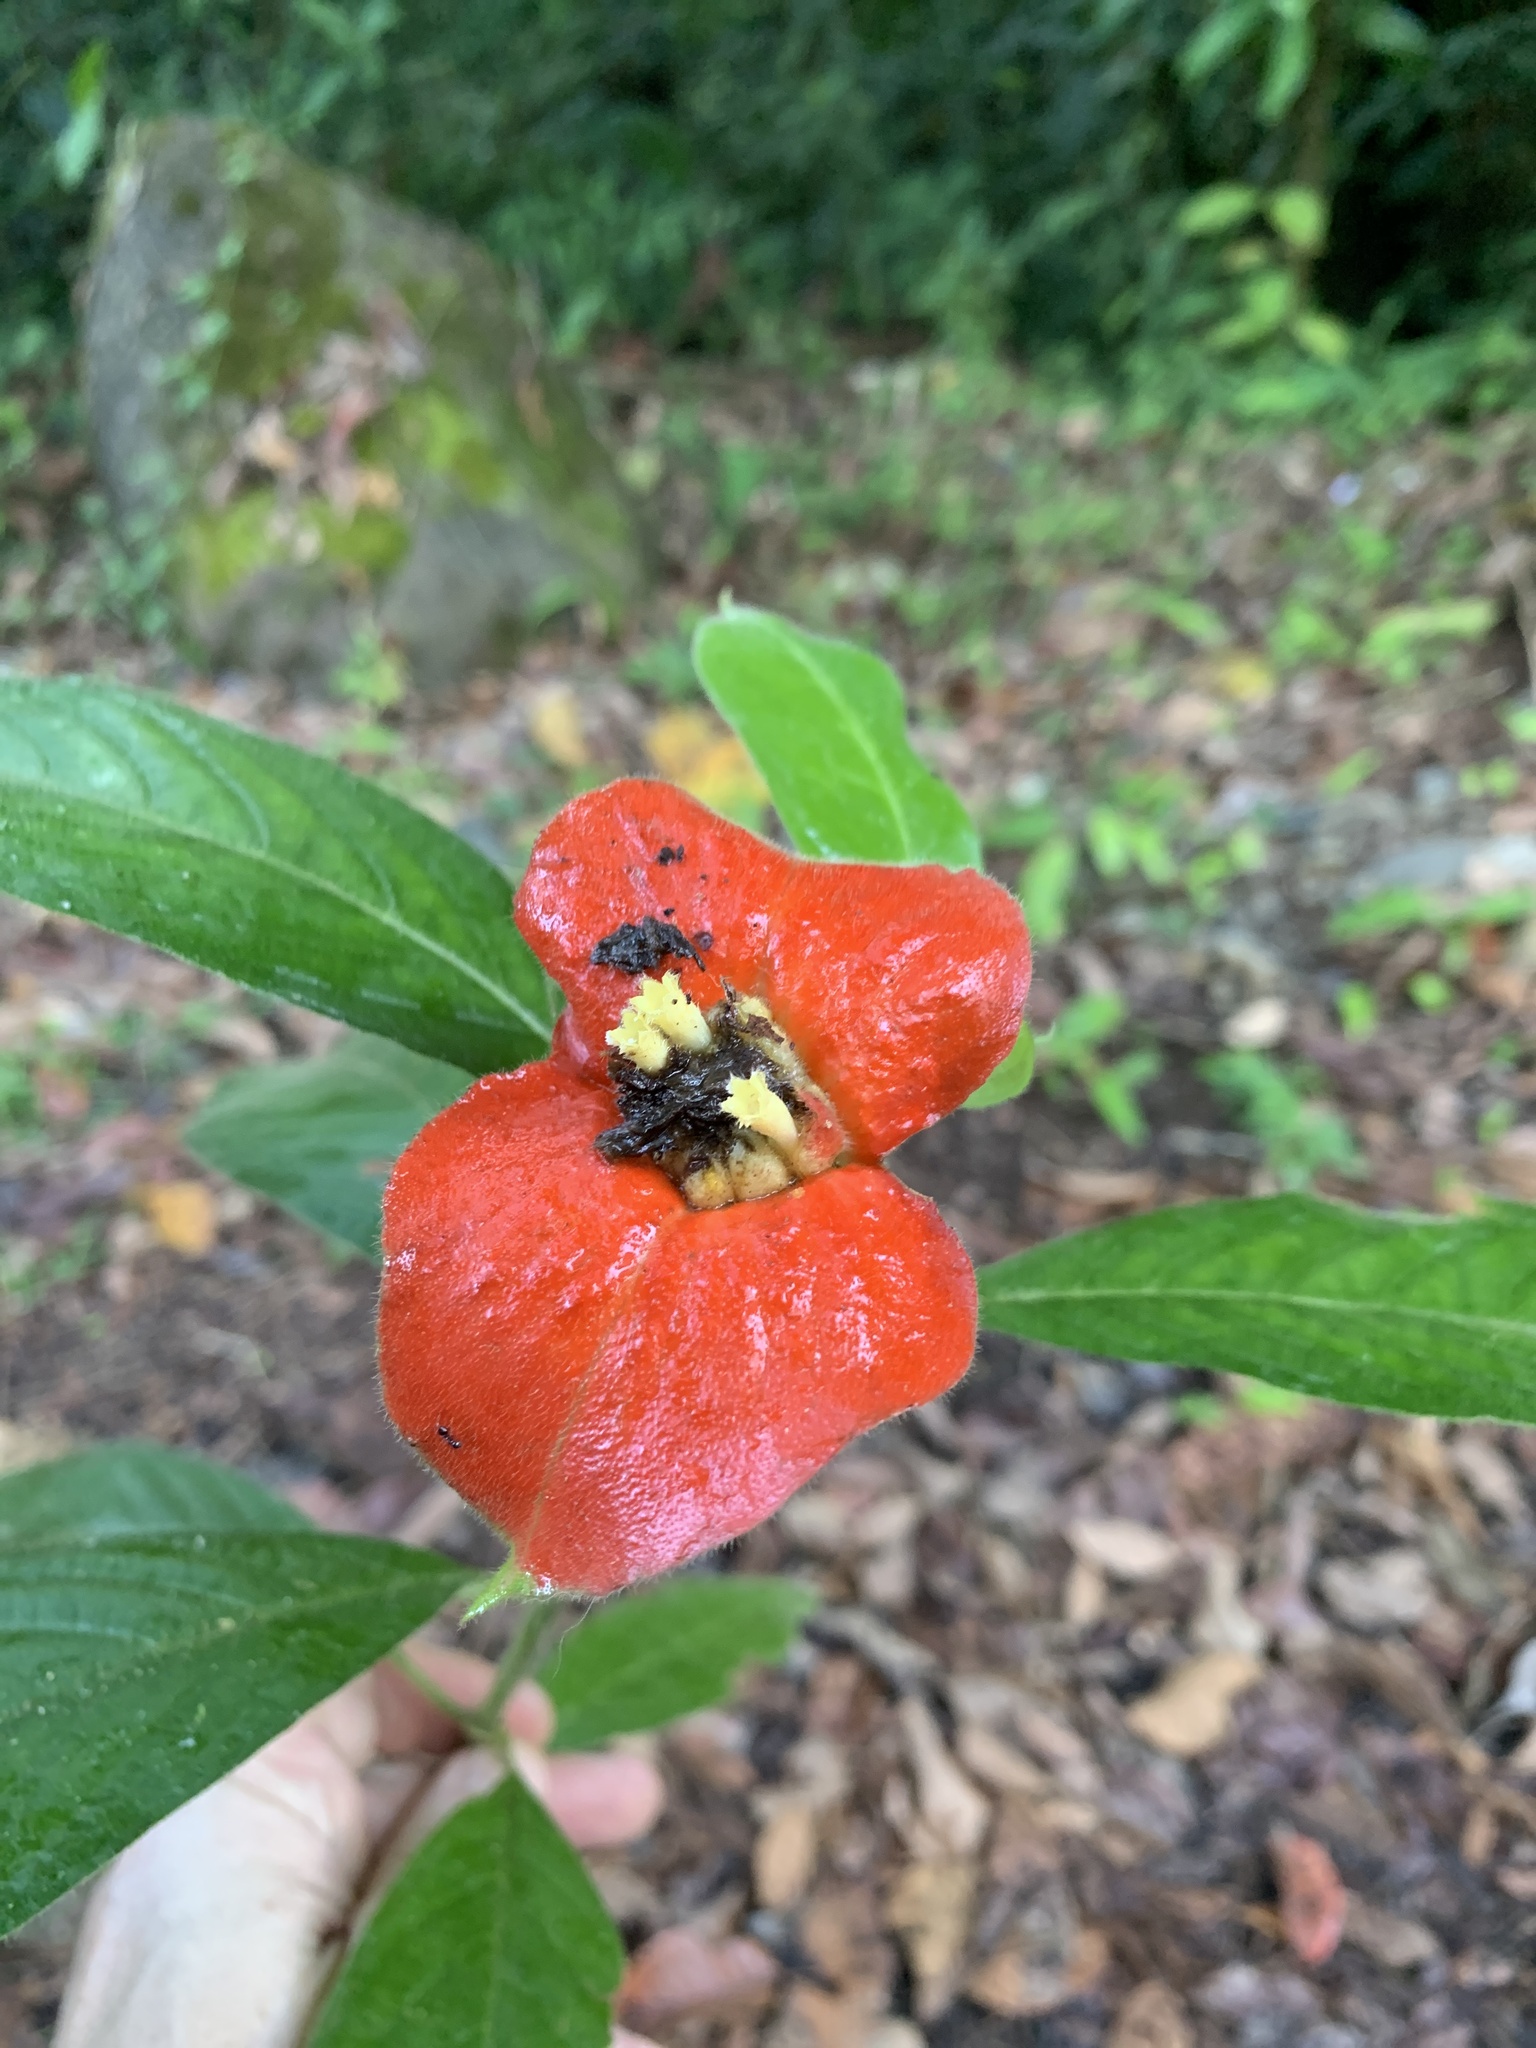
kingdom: Plantae
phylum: Tracheophyta
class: Magnoliopsida
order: Gentianales
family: Rubiaceae
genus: Palicourea
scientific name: Palicourea tomentosa
